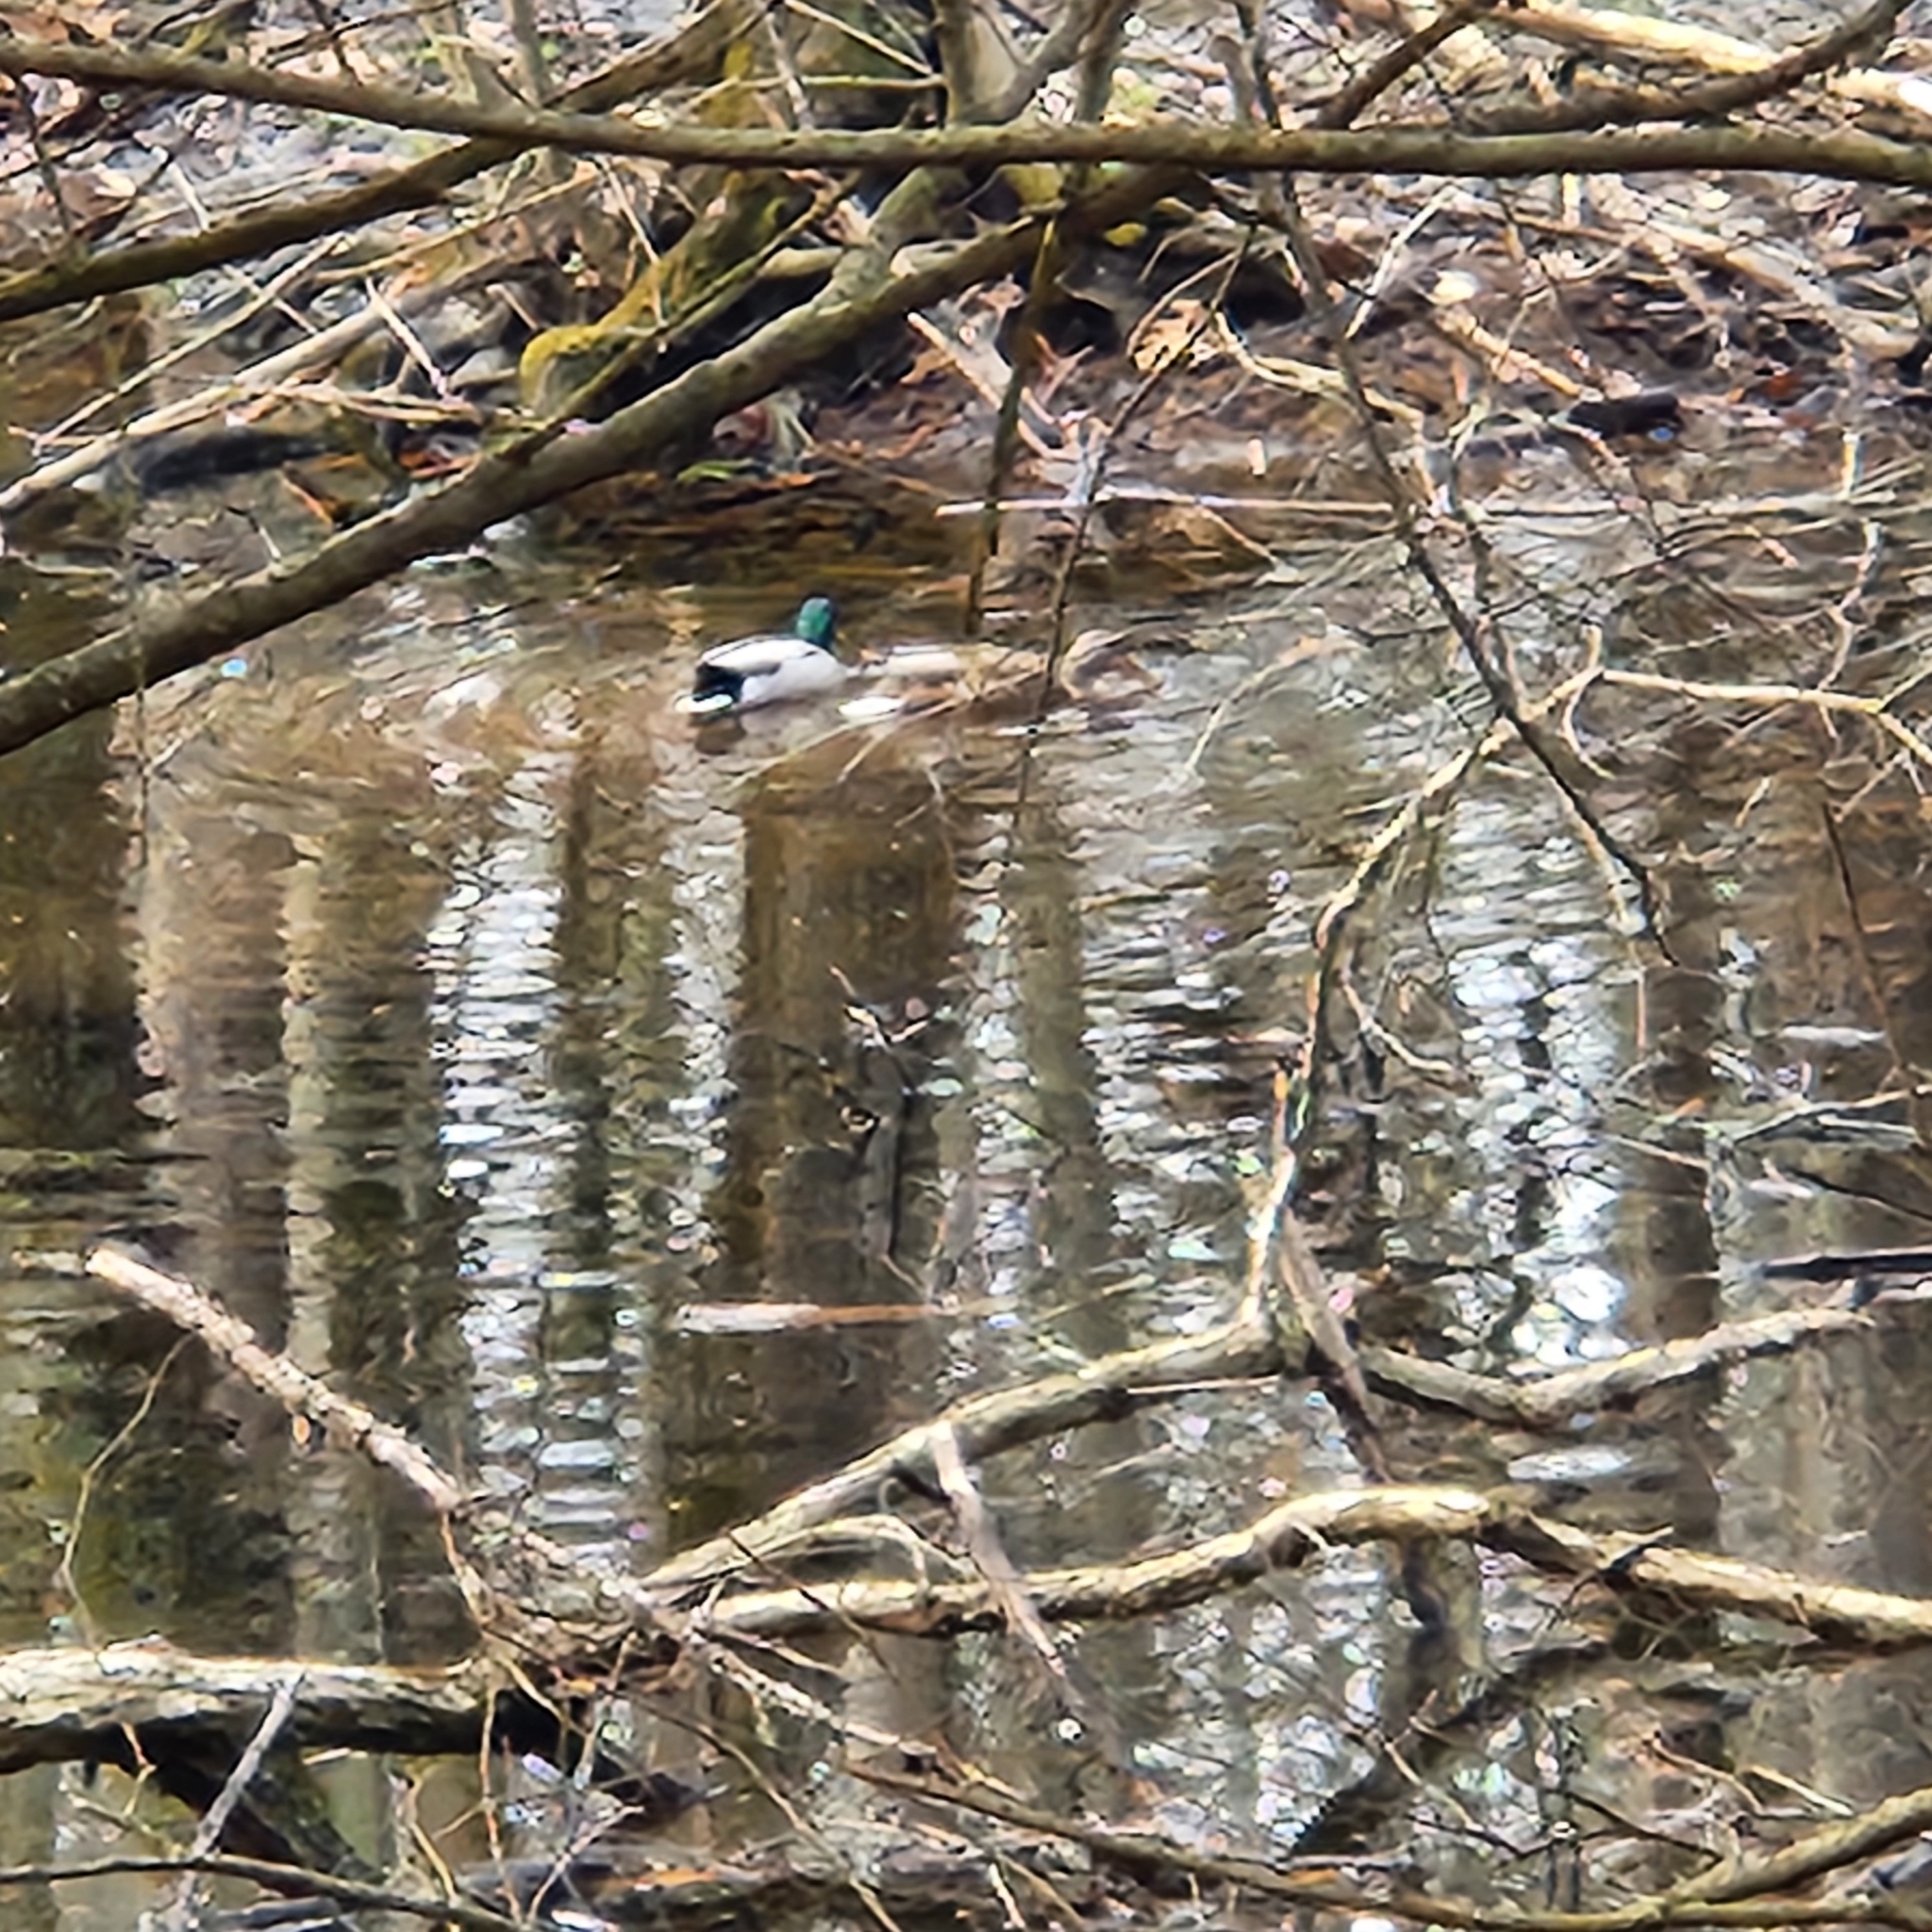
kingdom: Animalia
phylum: Chordata
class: Aves
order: Anseriformes
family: Anatidae
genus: Anas
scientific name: Anas platyrhynchos
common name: Mallard
